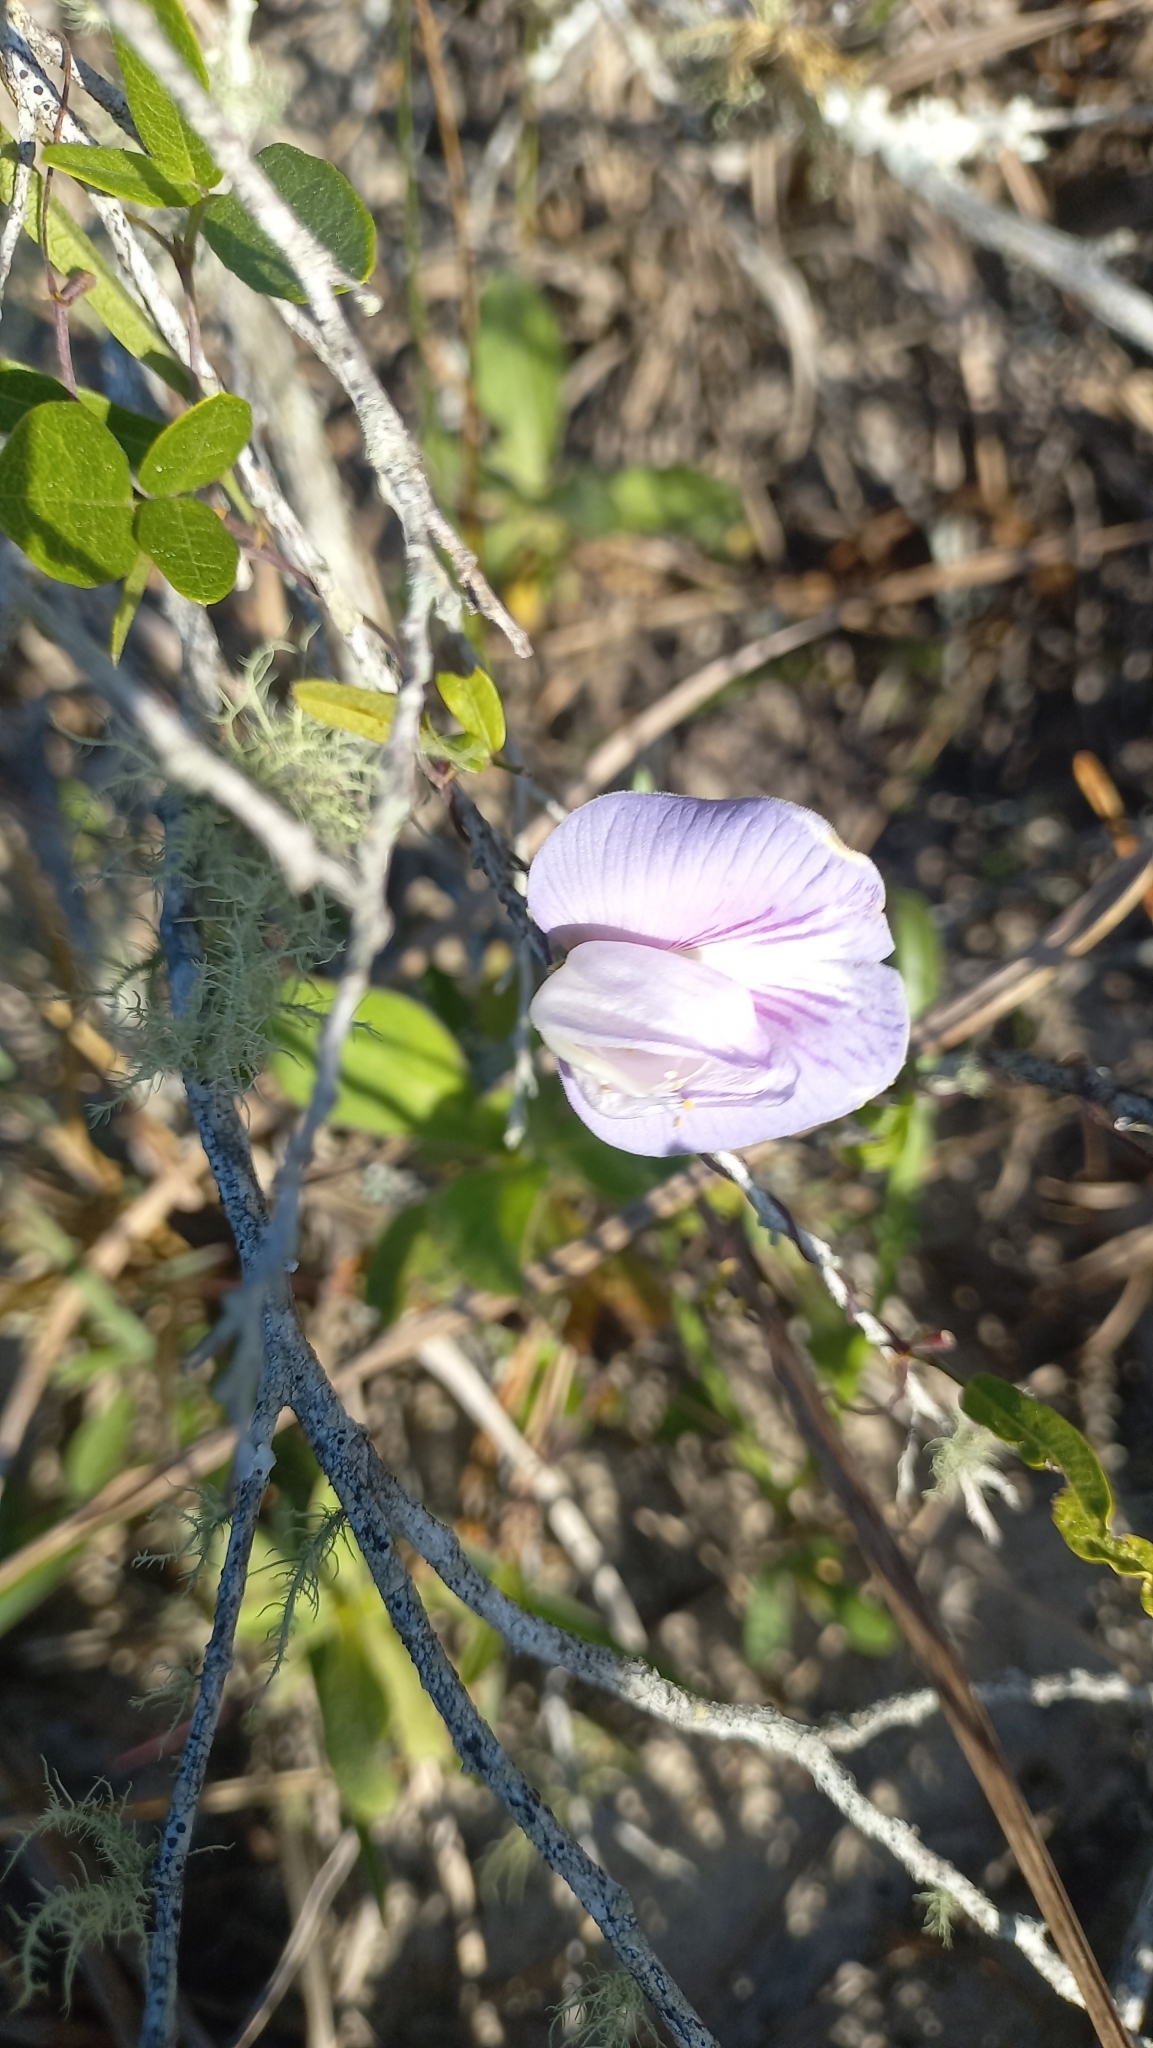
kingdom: Plantae
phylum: Tracheophyta
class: Magnoliopsida
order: Fabales
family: Fabaceae
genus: Centrosema
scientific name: Centrosema virginianum
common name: Butterfly-pea
